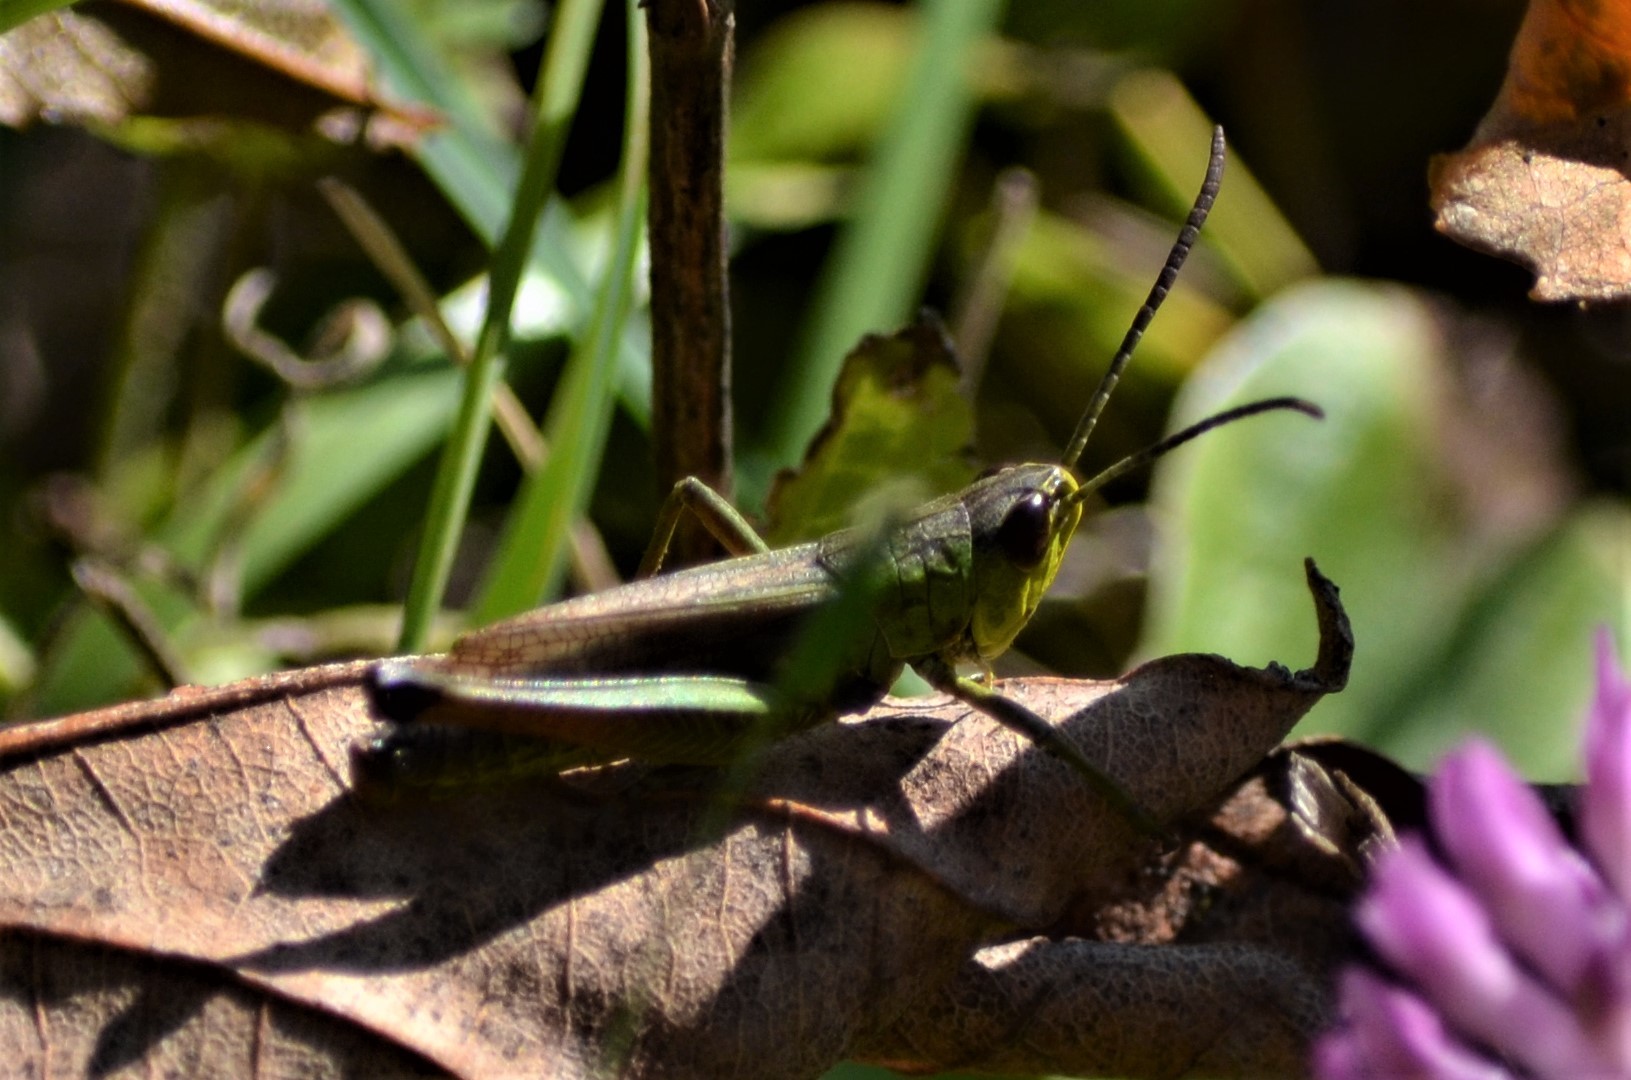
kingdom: Animalia
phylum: Arthropoda
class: Insecta
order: Orthoptera
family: Acrididae
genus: Pseudochorthippus
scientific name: Pseudochorthippus parallelus
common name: Meadow grasshopper
